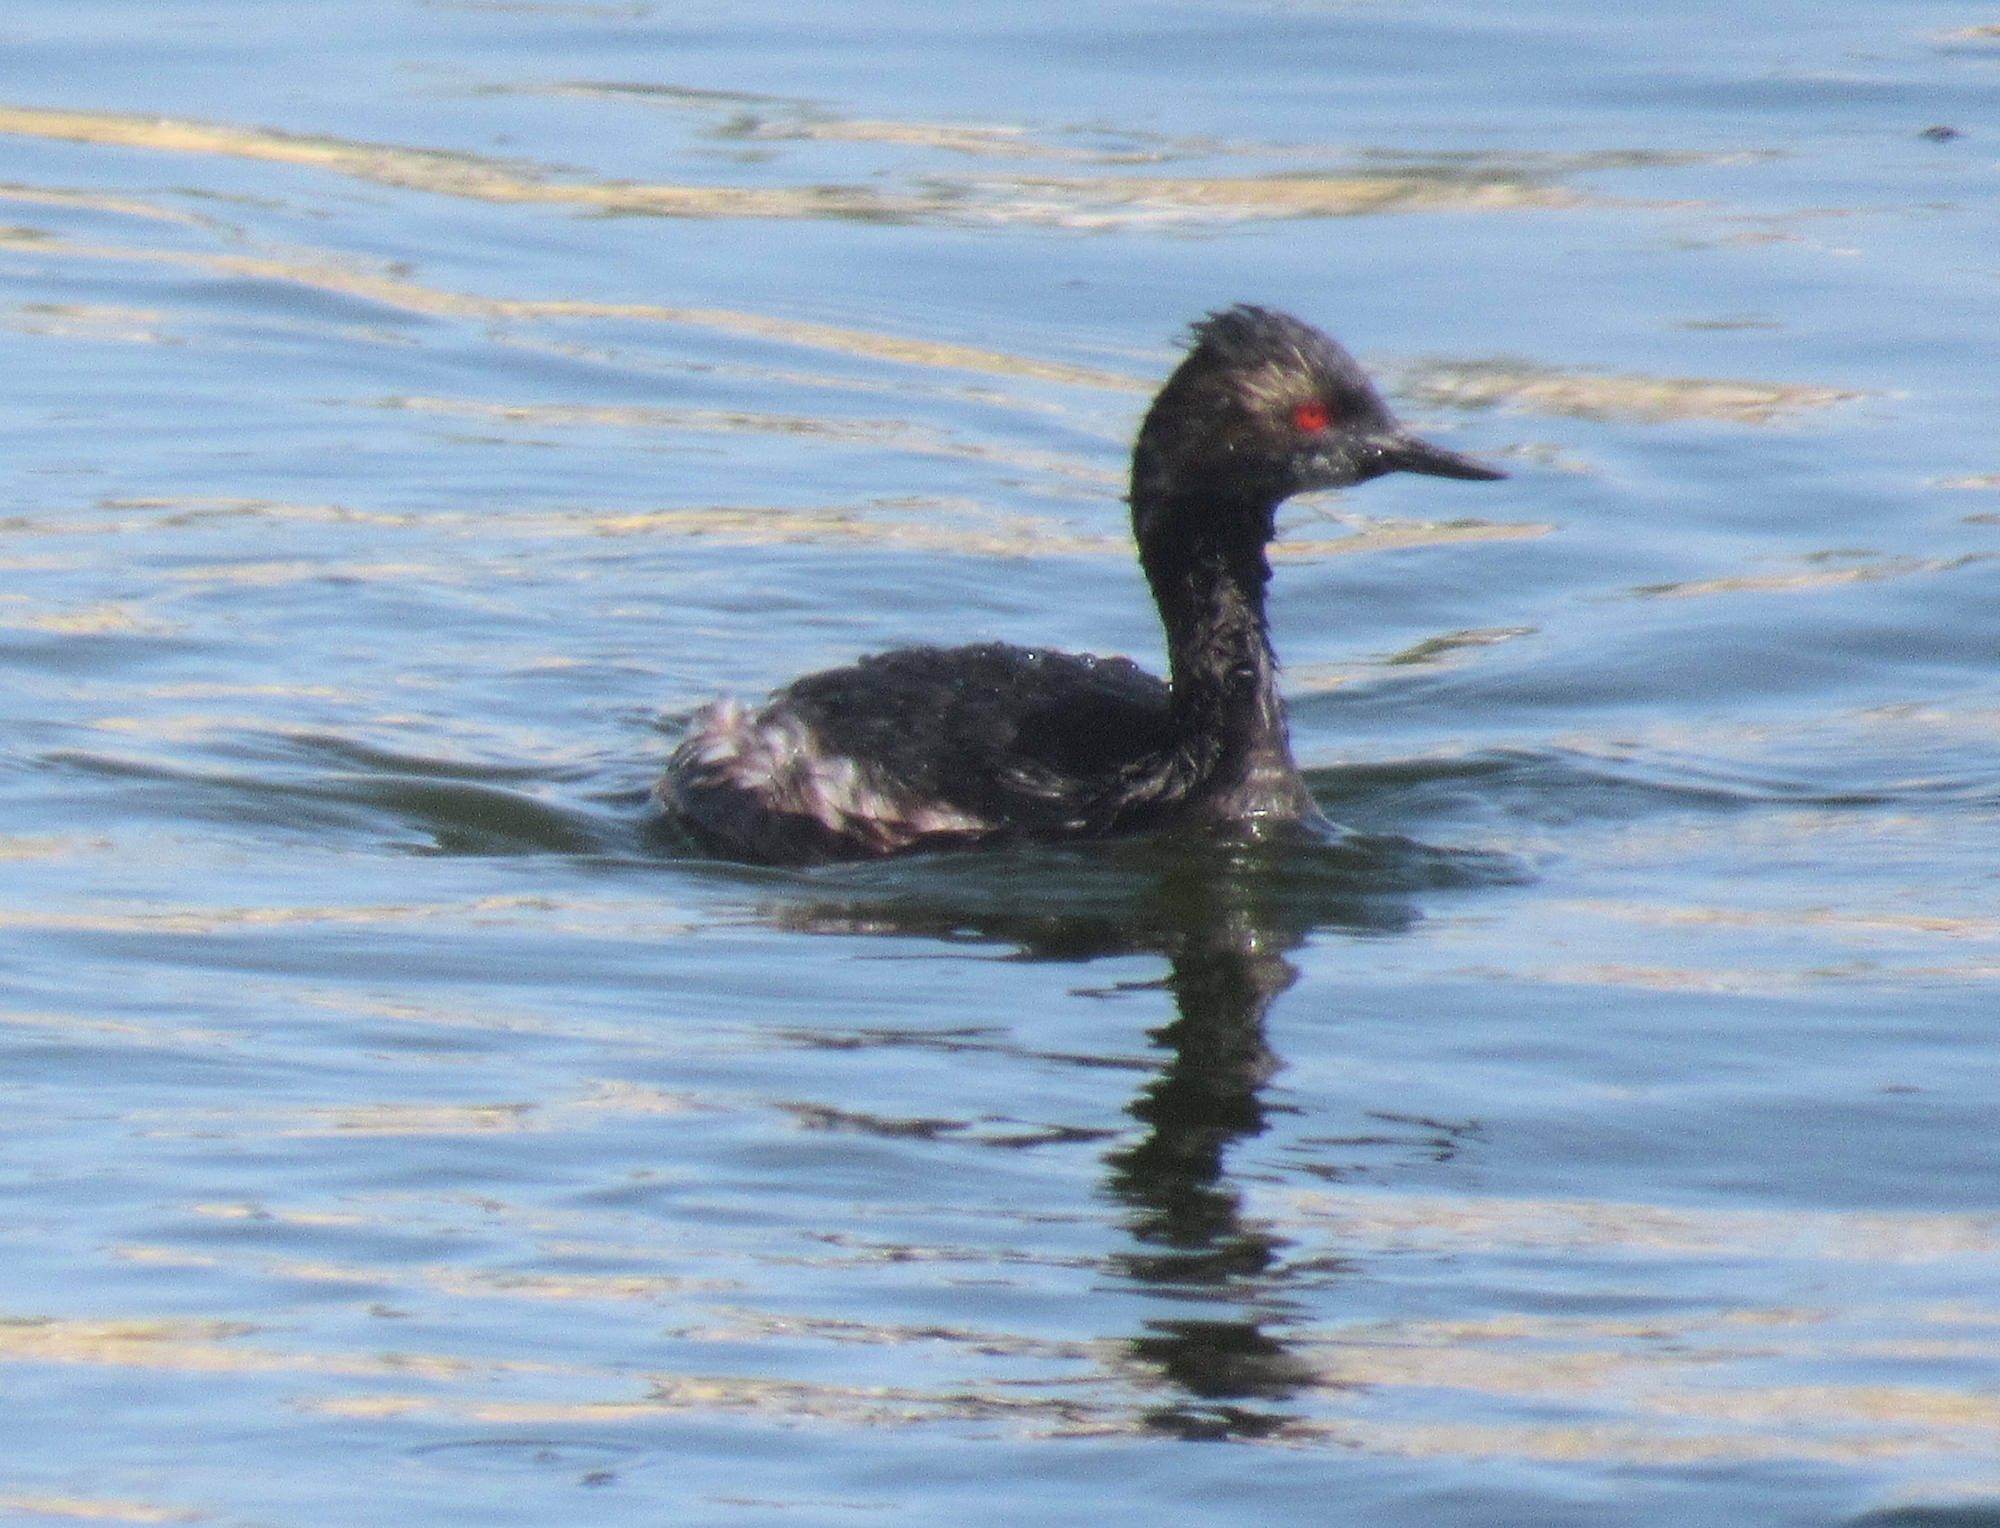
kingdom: Animalia
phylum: Chordata
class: Aves
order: Podicipediformes
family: Podicipedidae
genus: Podiceps
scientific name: Podiceps nigricollis
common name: Black-necked grebe
